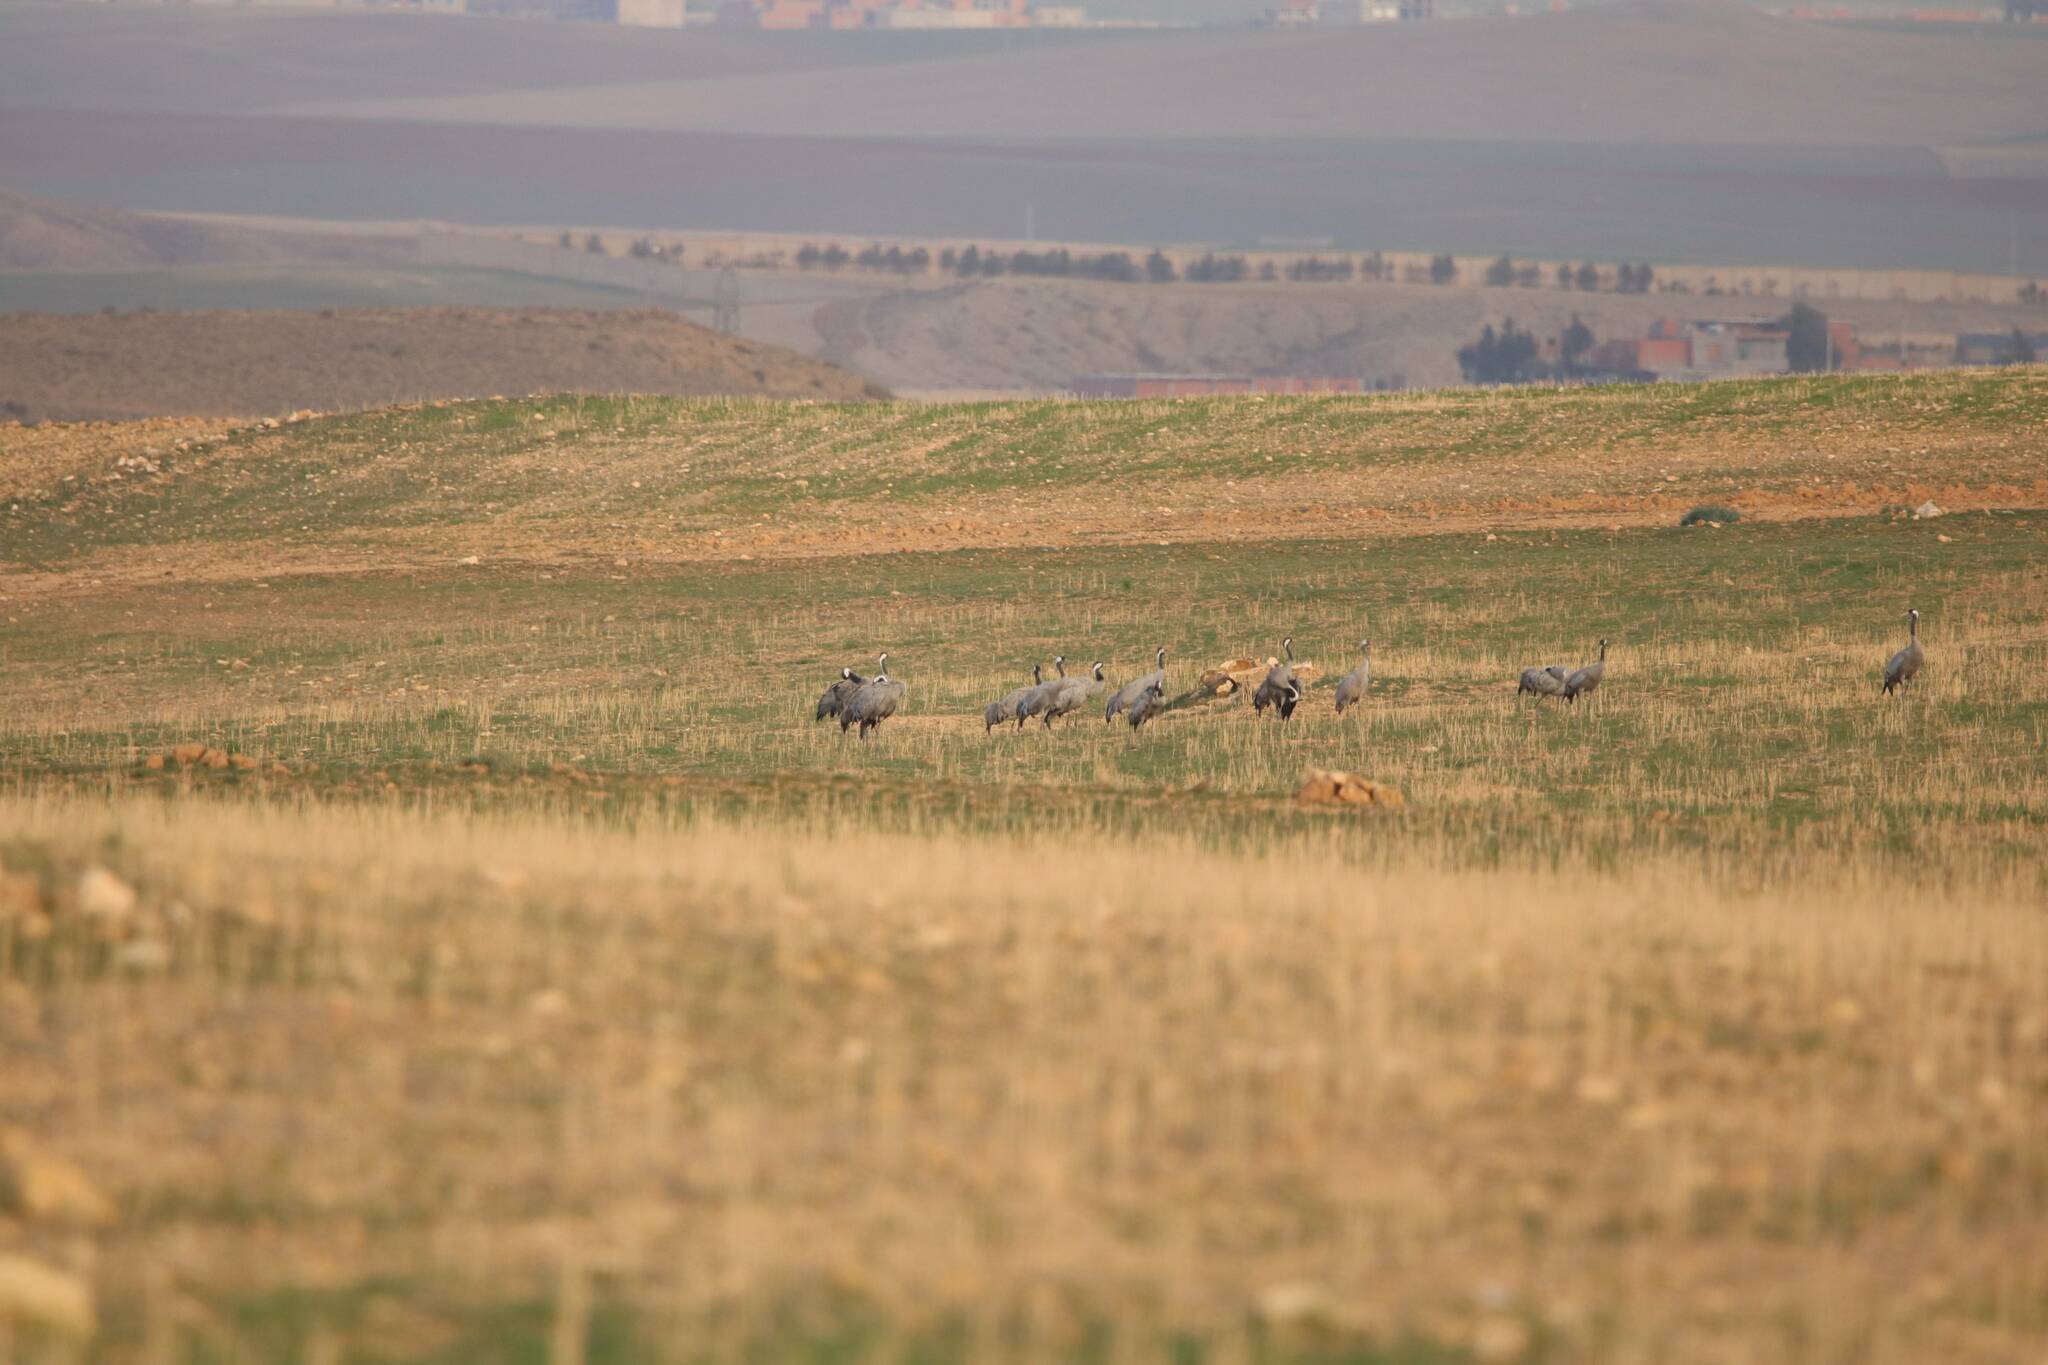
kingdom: Animalia
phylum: Chordata
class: Aves
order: Gruiformes
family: Gruidae
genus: Grus
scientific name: Grus grus
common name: Common crane
